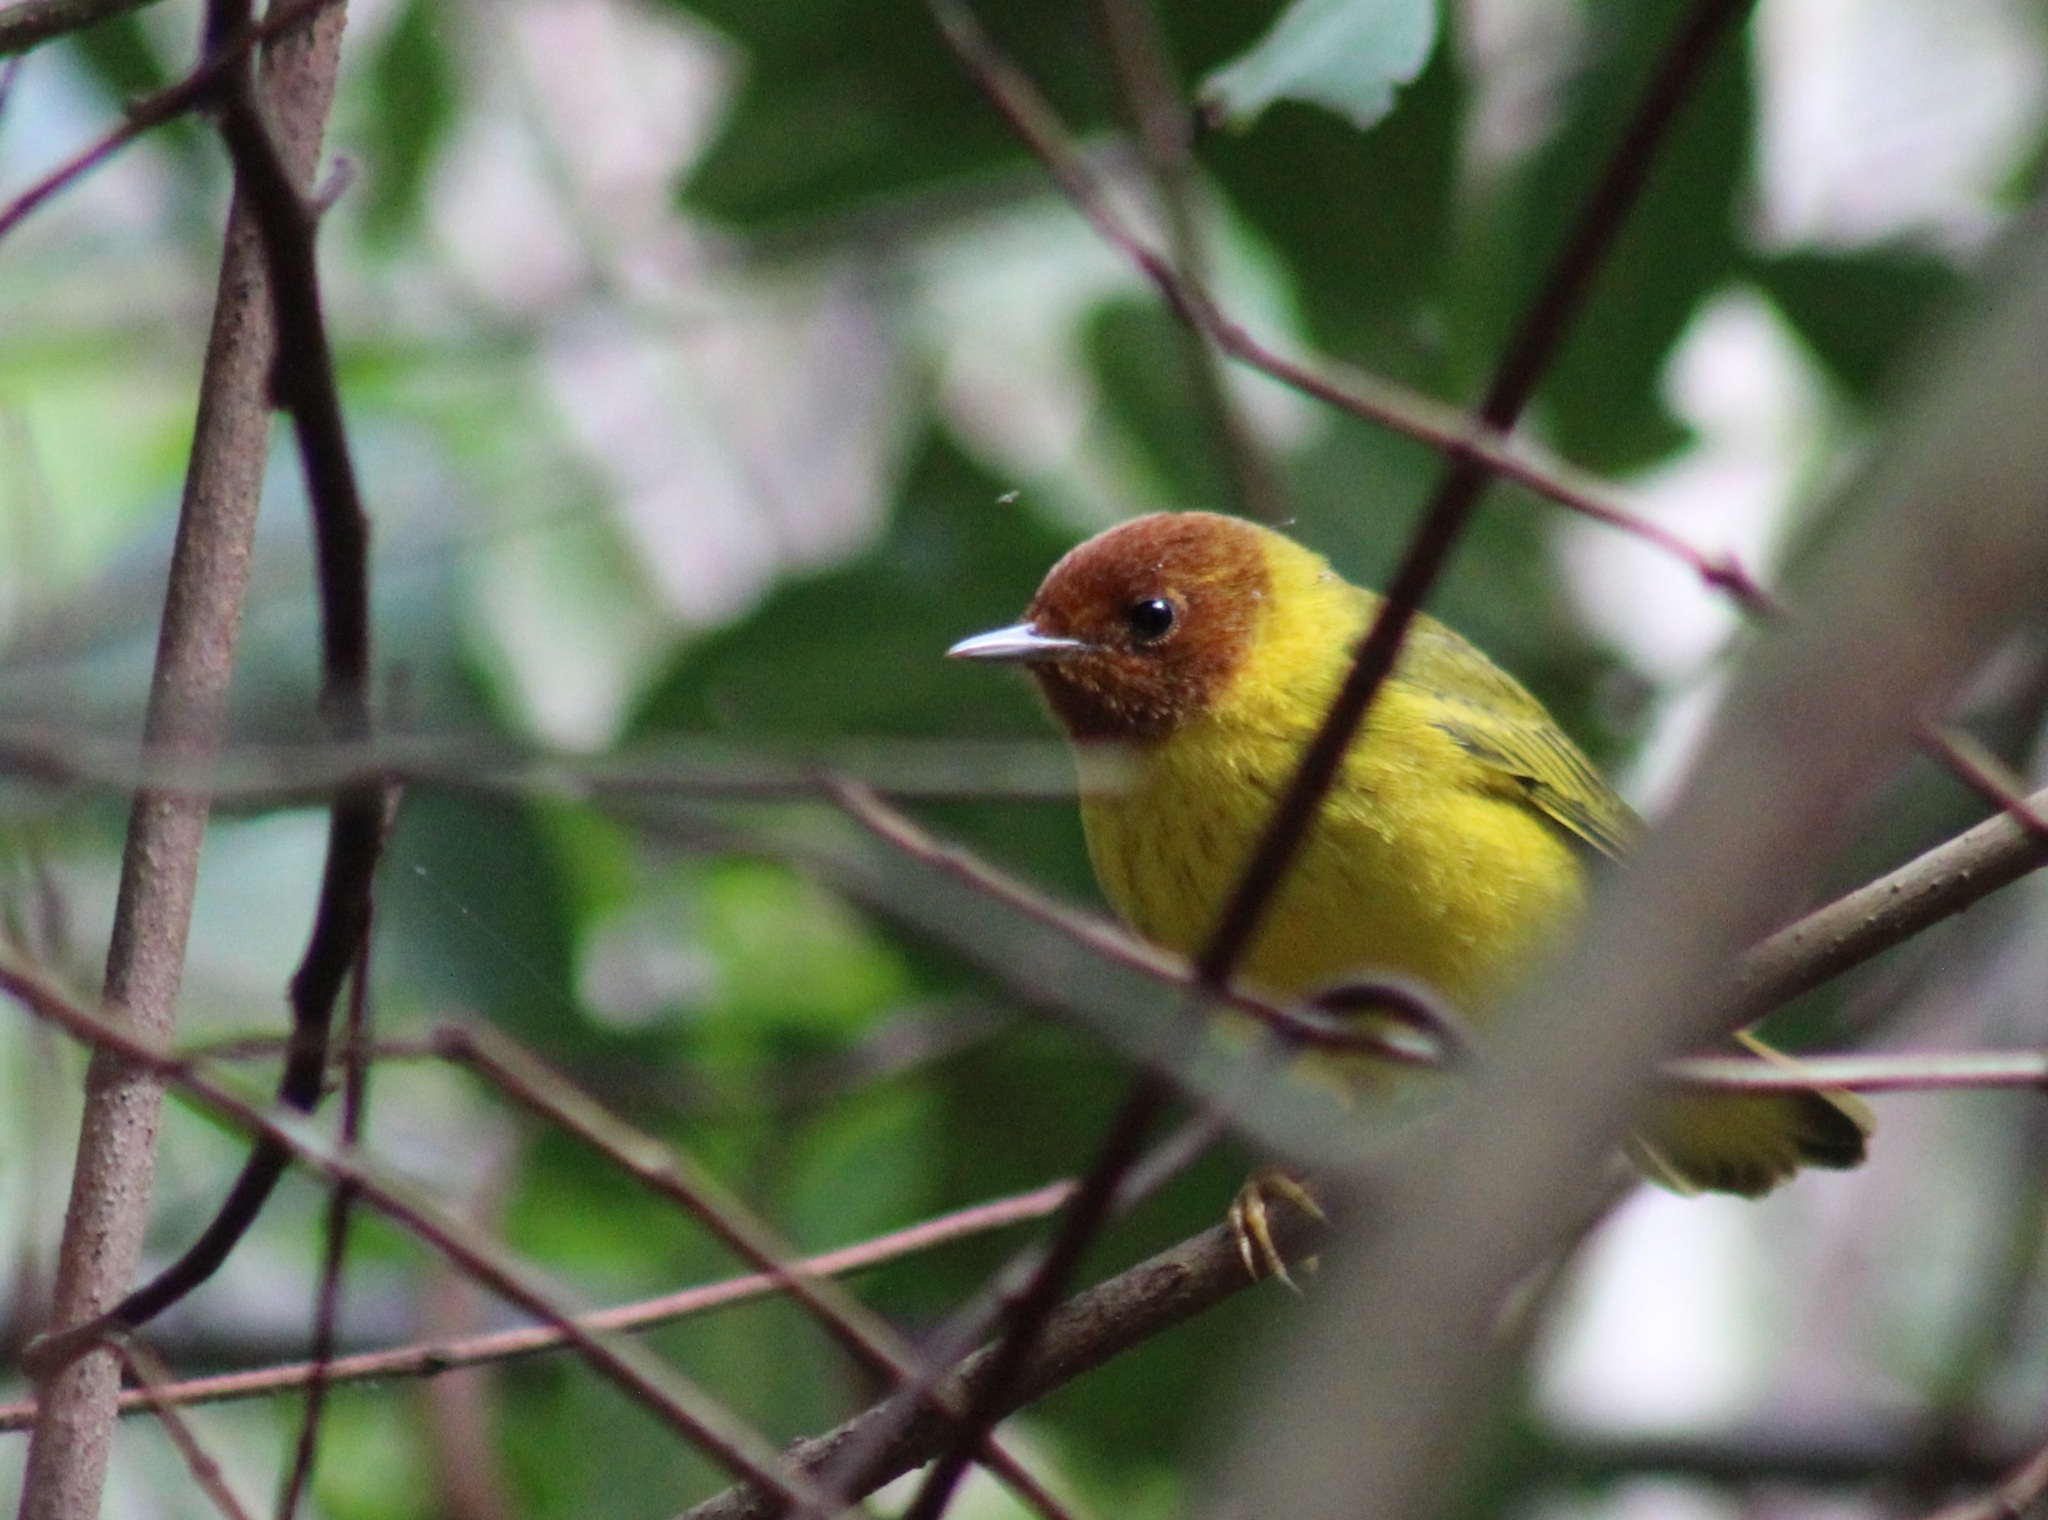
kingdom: Animalia
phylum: Chordata
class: Aves
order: Passeriformes
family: Parulidae
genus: Setophaga
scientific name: Setophaga petechia
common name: Yellow warbler
